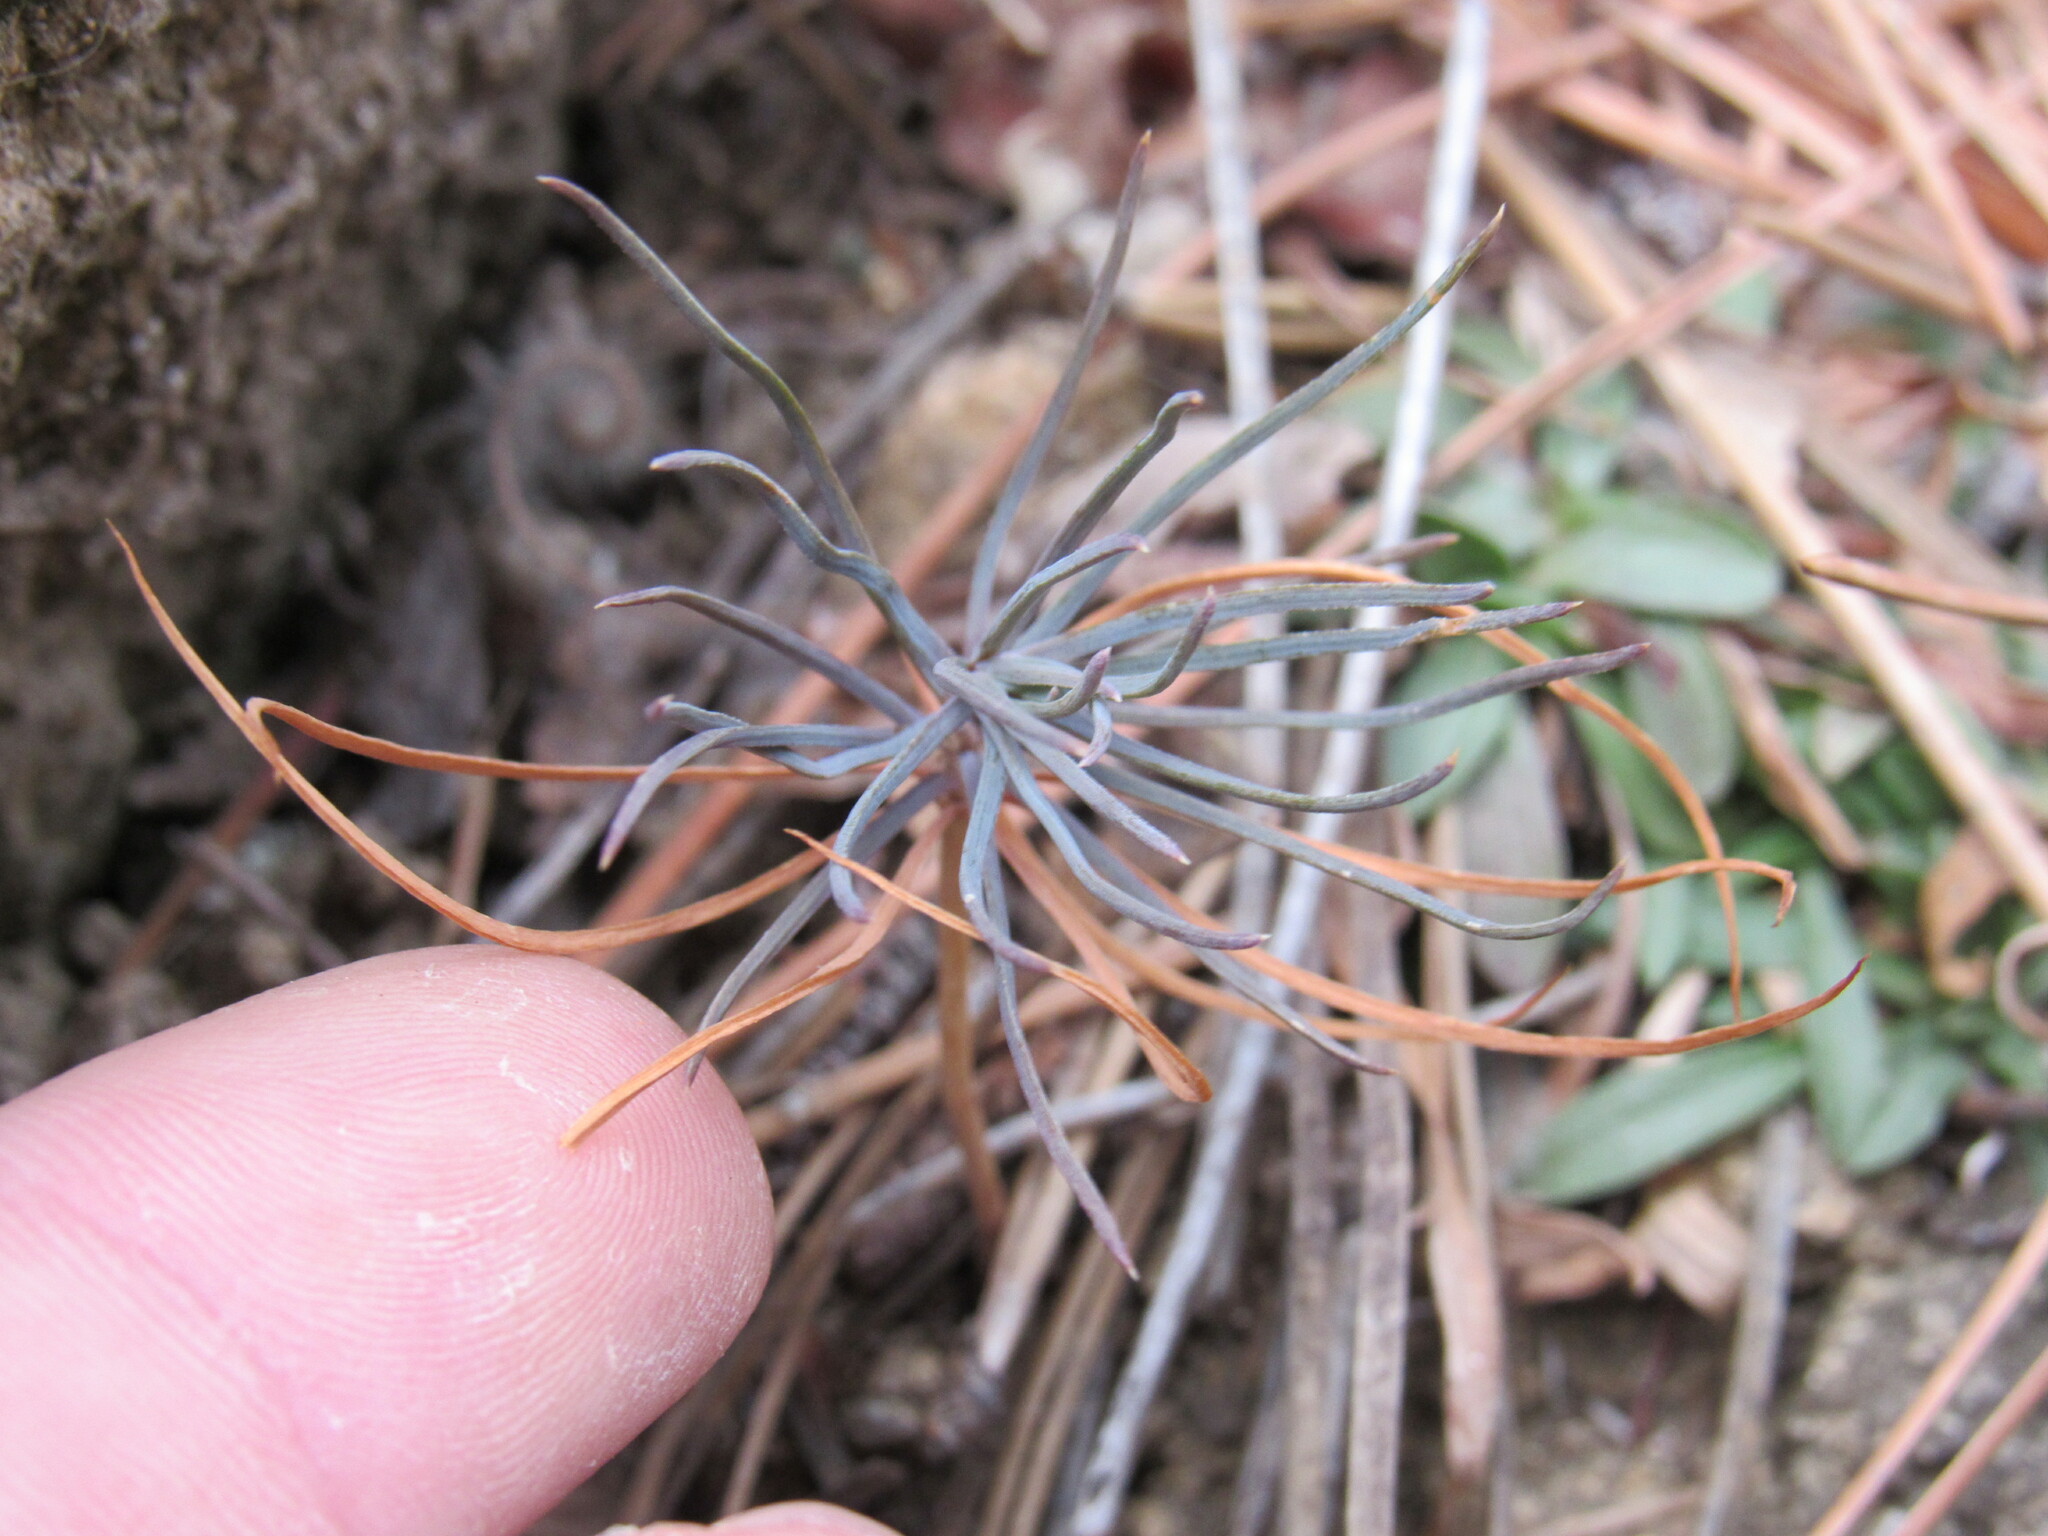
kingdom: Plantae
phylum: Tracheophyta
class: Pinopsida
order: Pinales
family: Cupressaceae
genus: Juniperus
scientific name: Juniperus scopulorum
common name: Rocky mountain juniper
